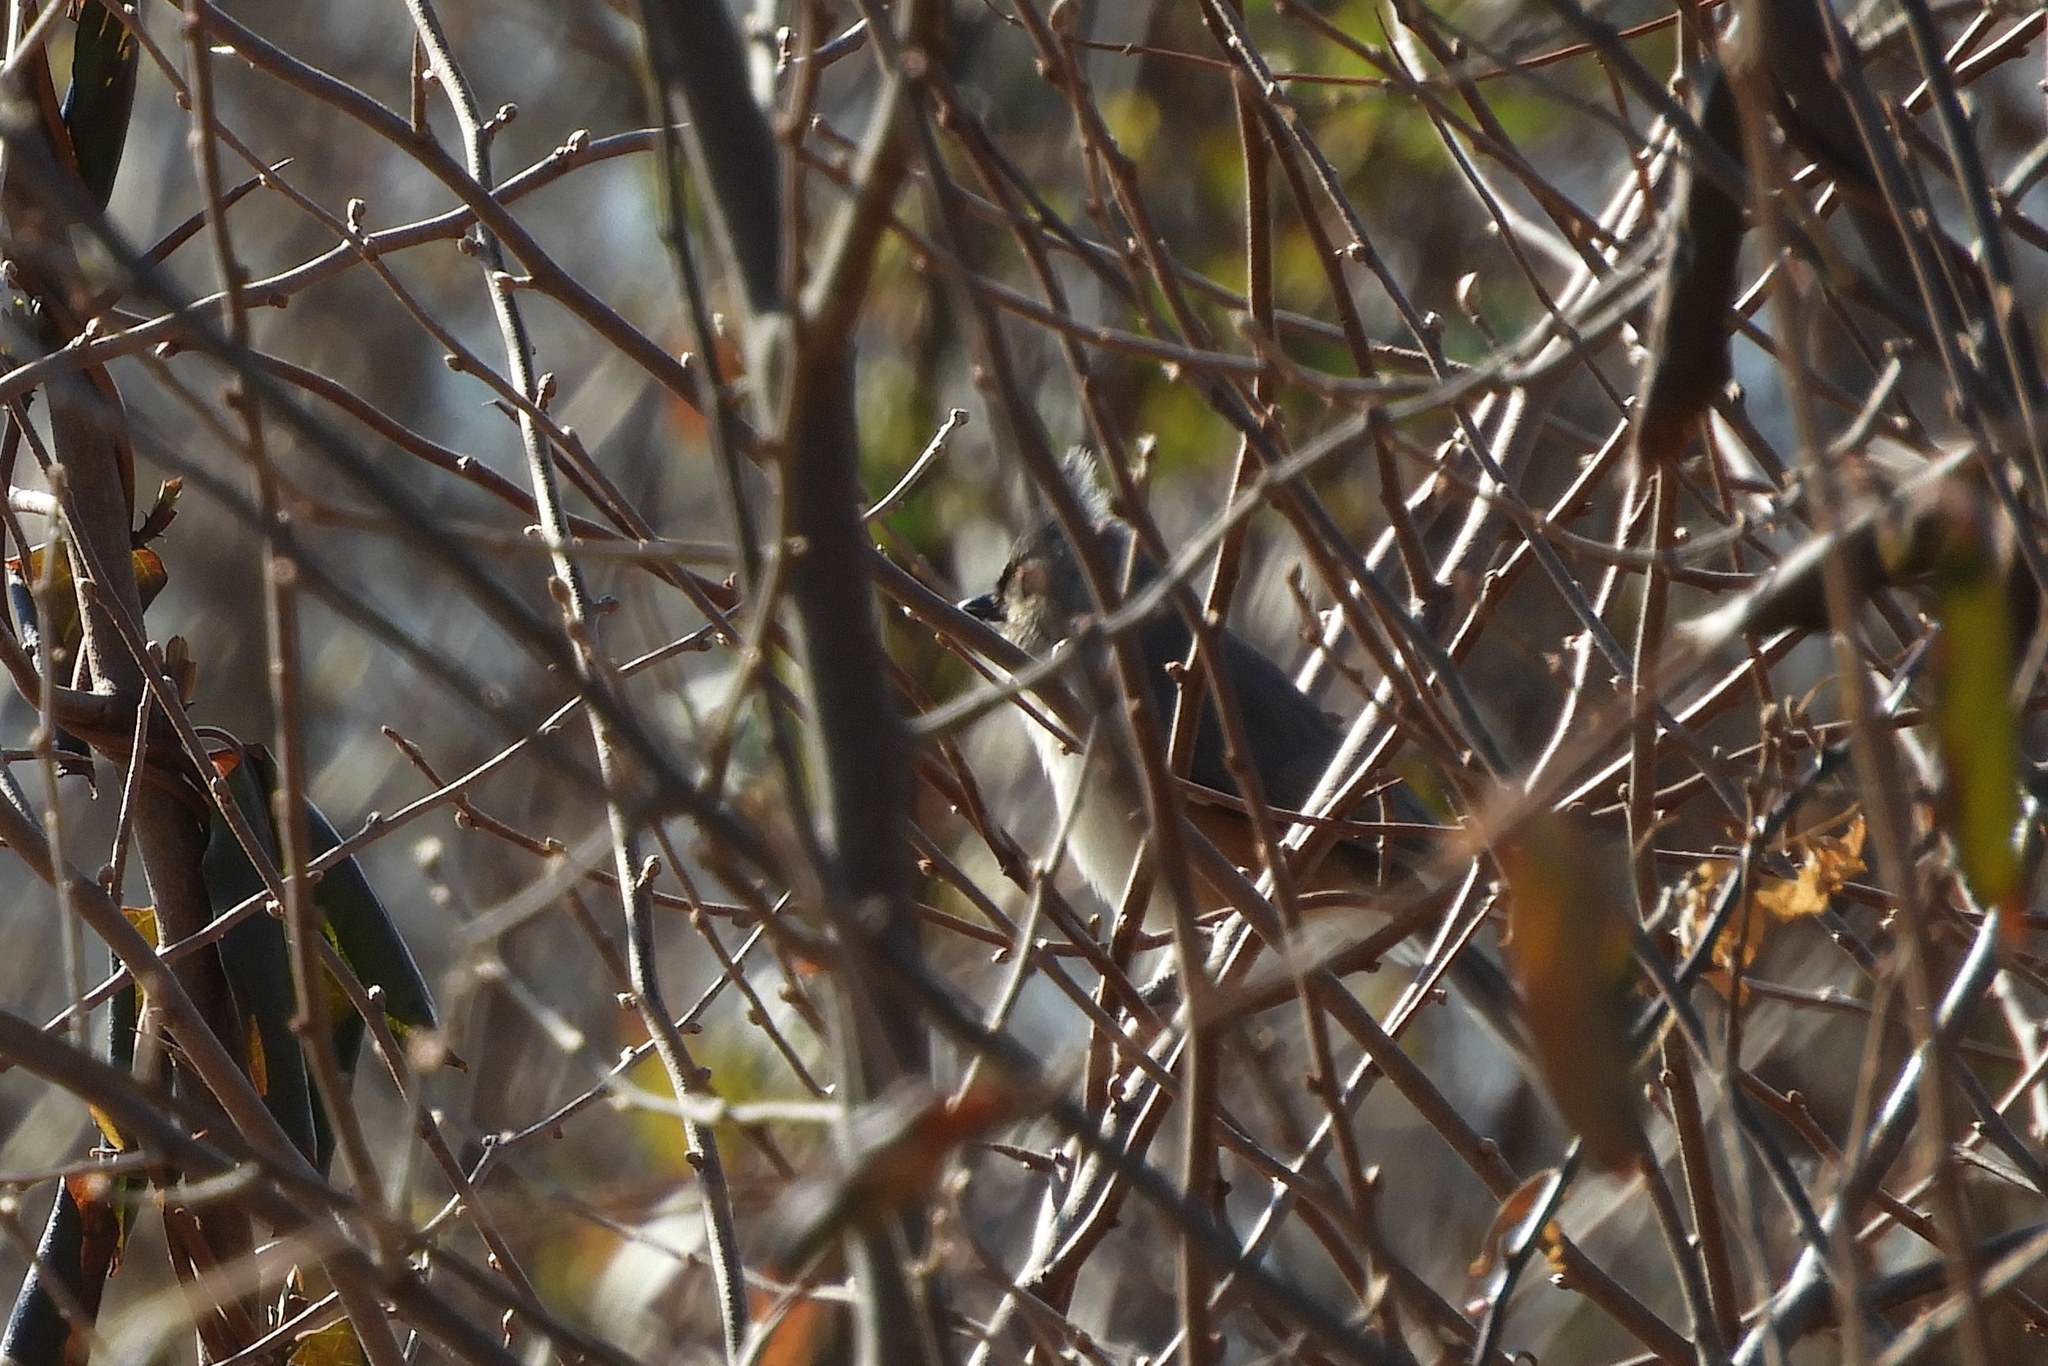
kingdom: Animalia
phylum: Chordata
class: Aves
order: Passeriformes
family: Paridae
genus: Baeolophus
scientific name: Baeolophus bicolor
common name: Tufted titmouse
